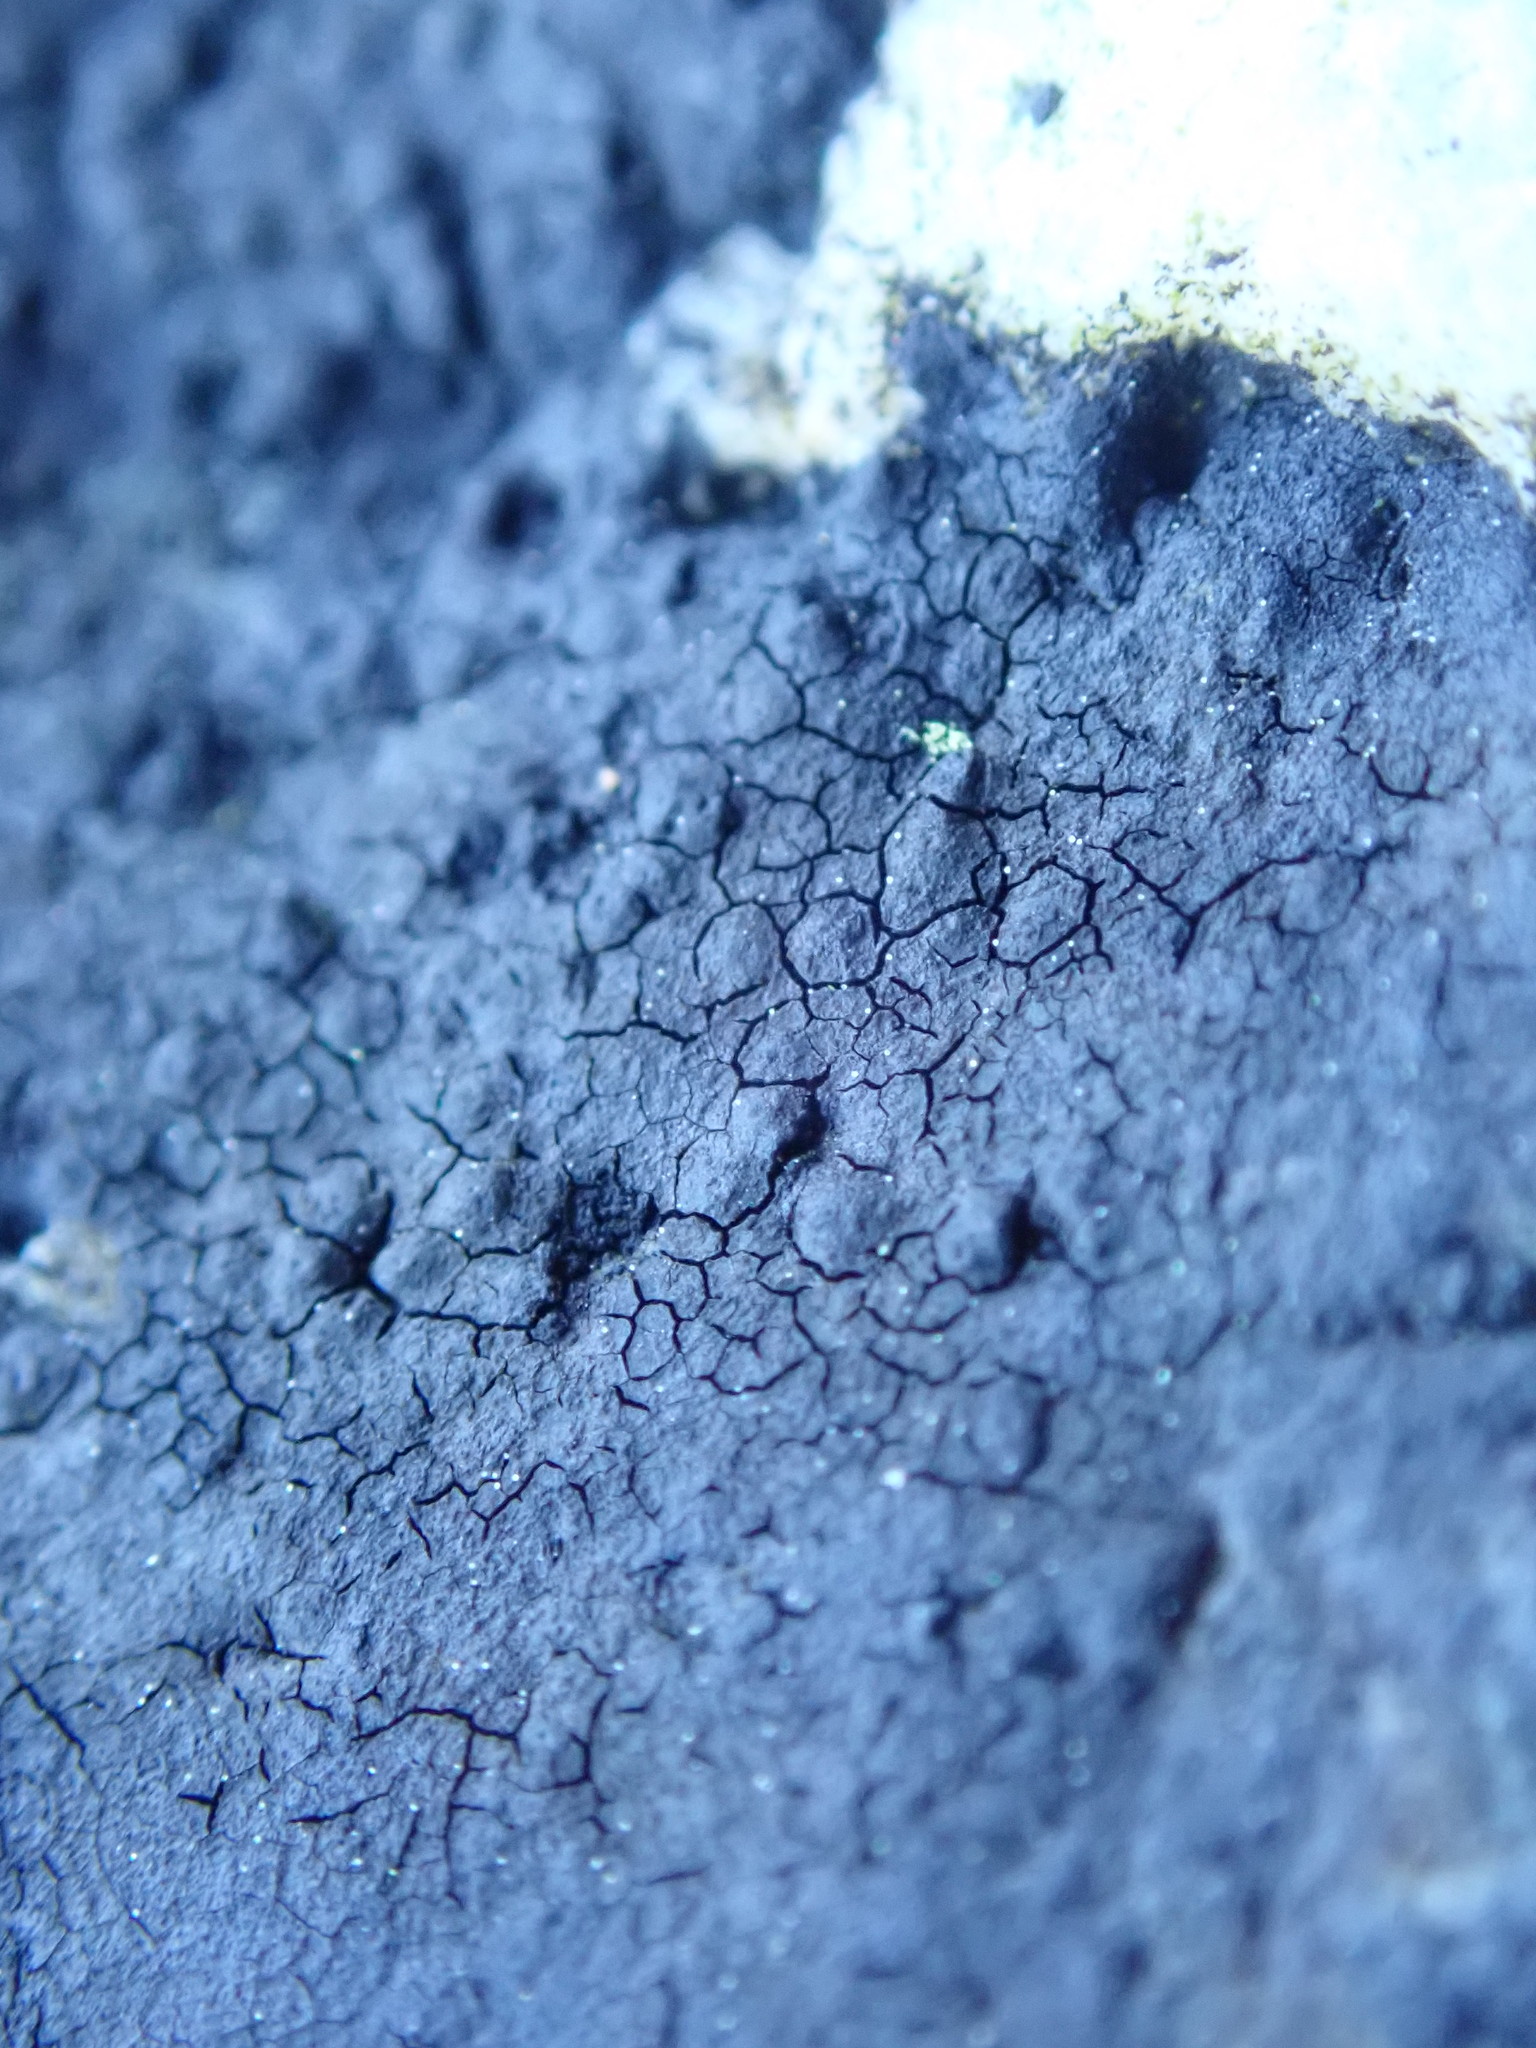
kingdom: Fungi
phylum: Ascomycota
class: Eurotiomycetes
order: Verrucariales
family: Verrucariaceae
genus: Hydropunctaria
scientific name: Hydropunctaria maura
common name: Tar lichen
